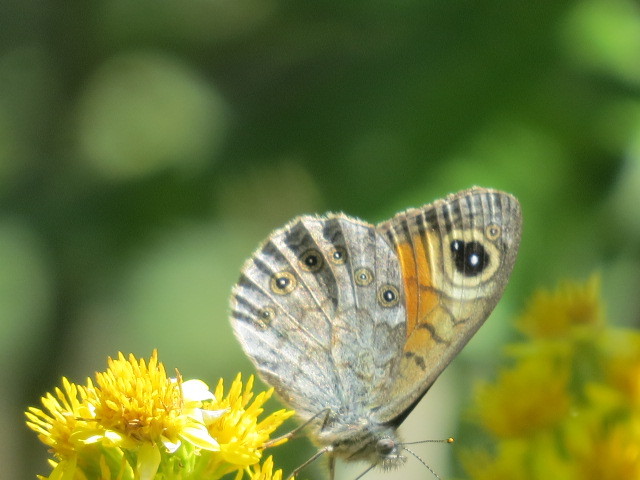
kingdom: Animalia
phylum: Arthropoda
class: Insecta
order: Lepidoptera
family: Nymphalidae
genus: Pararge
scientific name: Pararge Lasiommata maera
